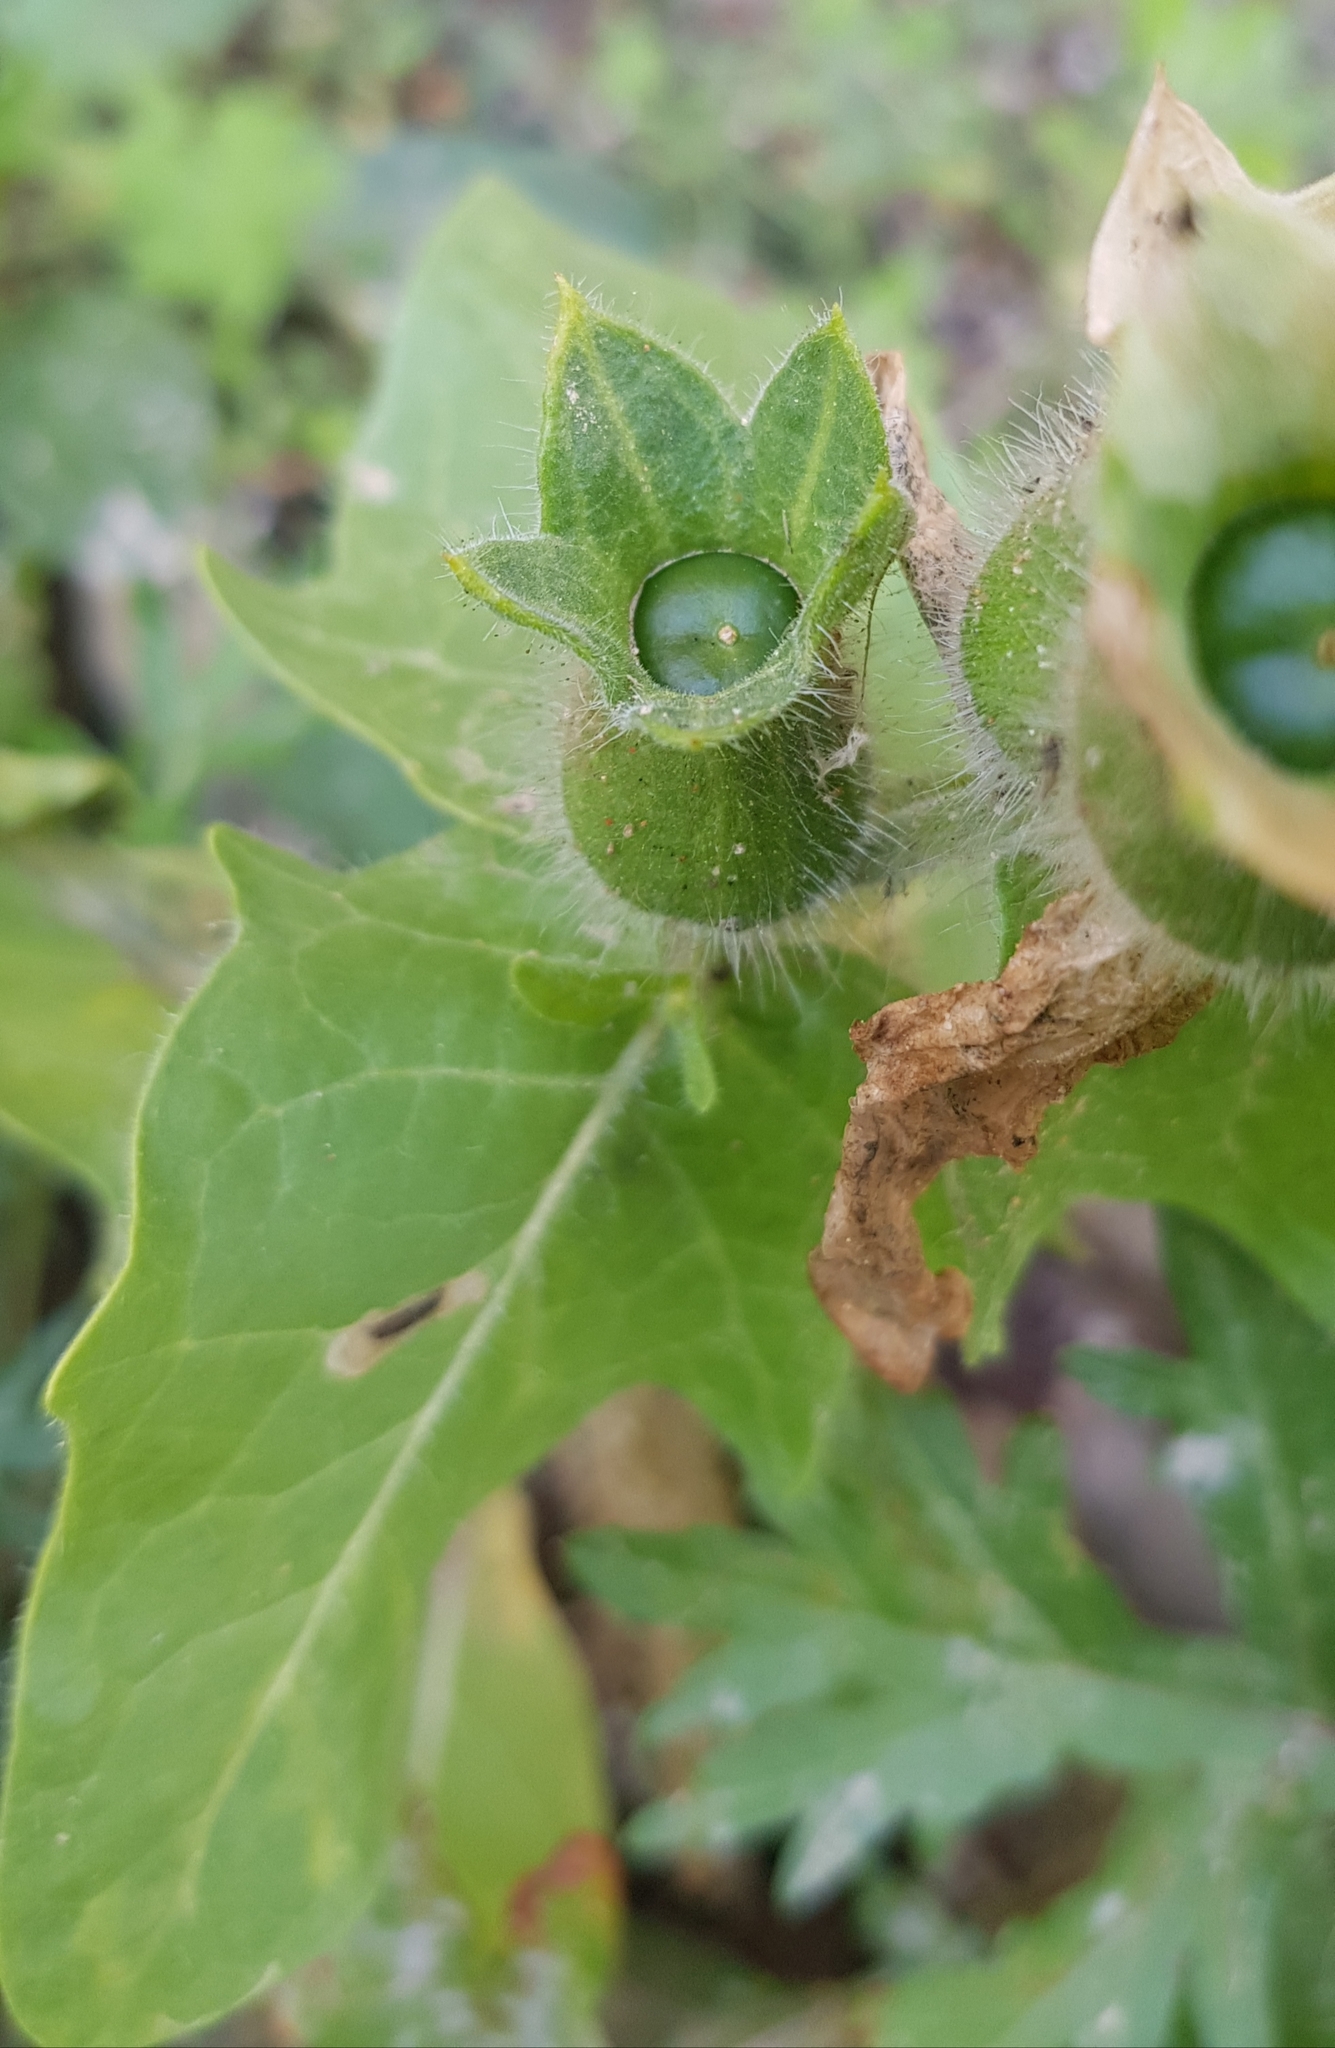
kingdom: Plantae
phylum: Tracheophyta
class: Magnoliopsida
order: Solanales
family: Solanaceae
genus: Hyoscyamus
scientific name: Hyoscyamus niger
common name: Henbane
